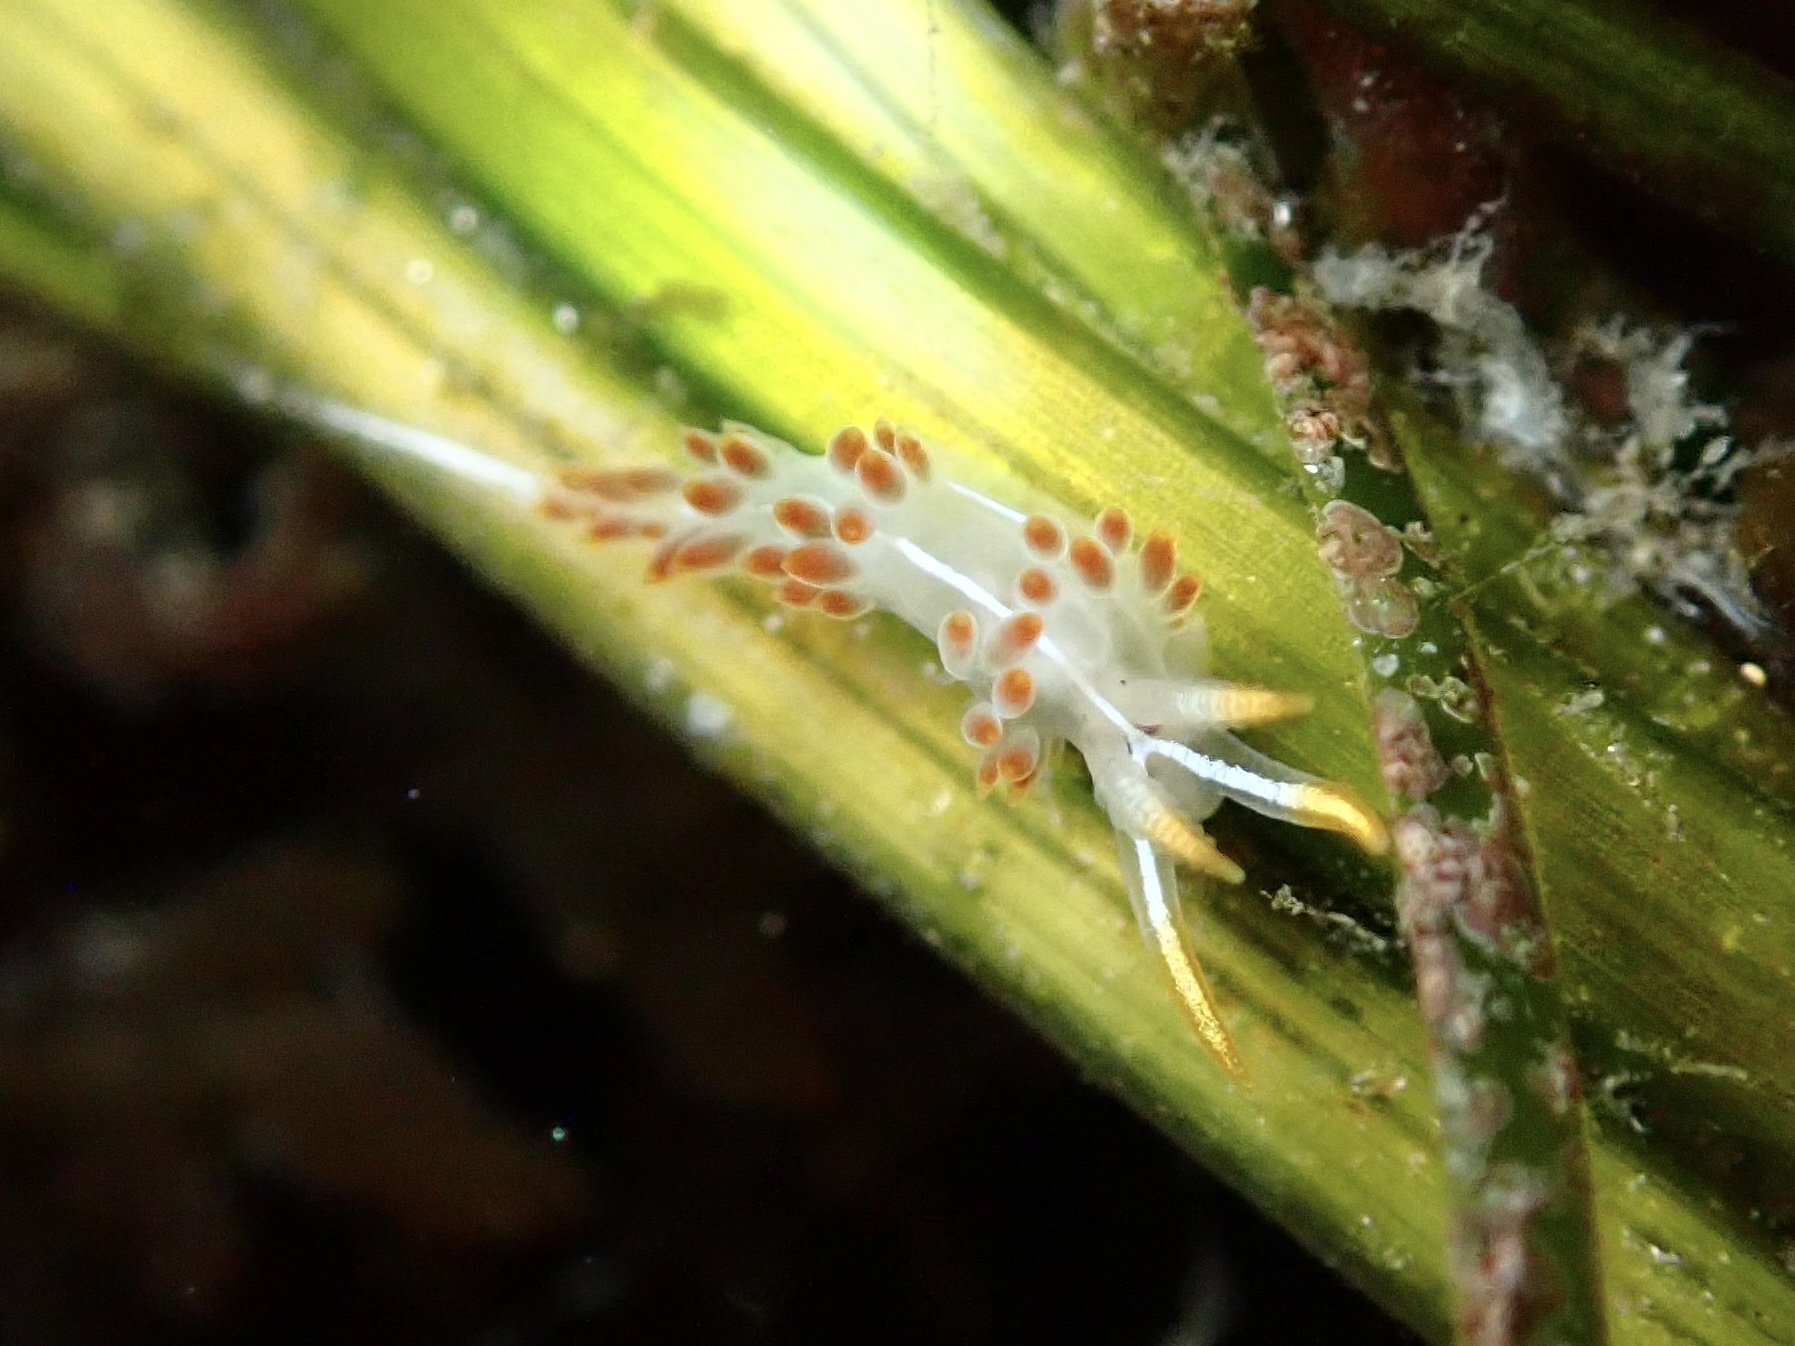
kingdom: Animalia
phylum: Mollusca
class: Gastropoda
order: Nudibranchia
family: Coryphellidae
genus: Coryphella
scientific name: Coryphella trilineata
